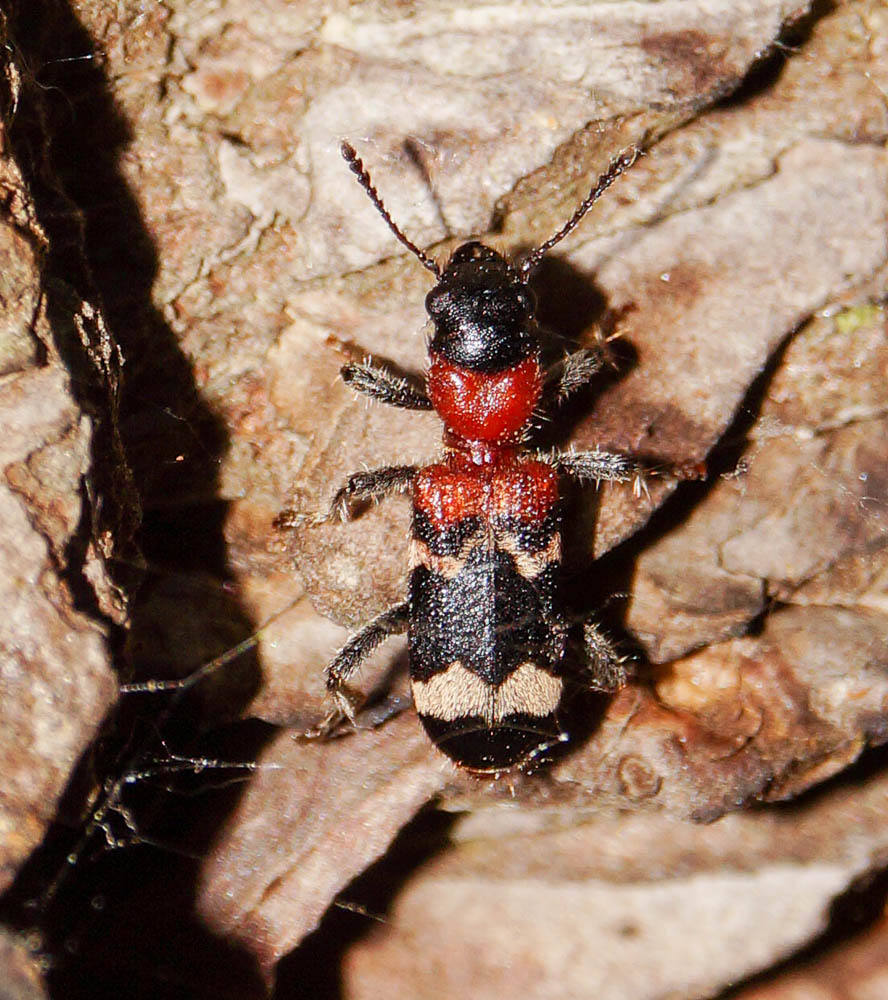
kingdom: Animalia
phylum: Arthropoda
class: Insecta
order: Coleoptera
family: Cleridae
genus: Thanasimus
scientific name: Thanasimus formicarius
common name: Ant beetle
